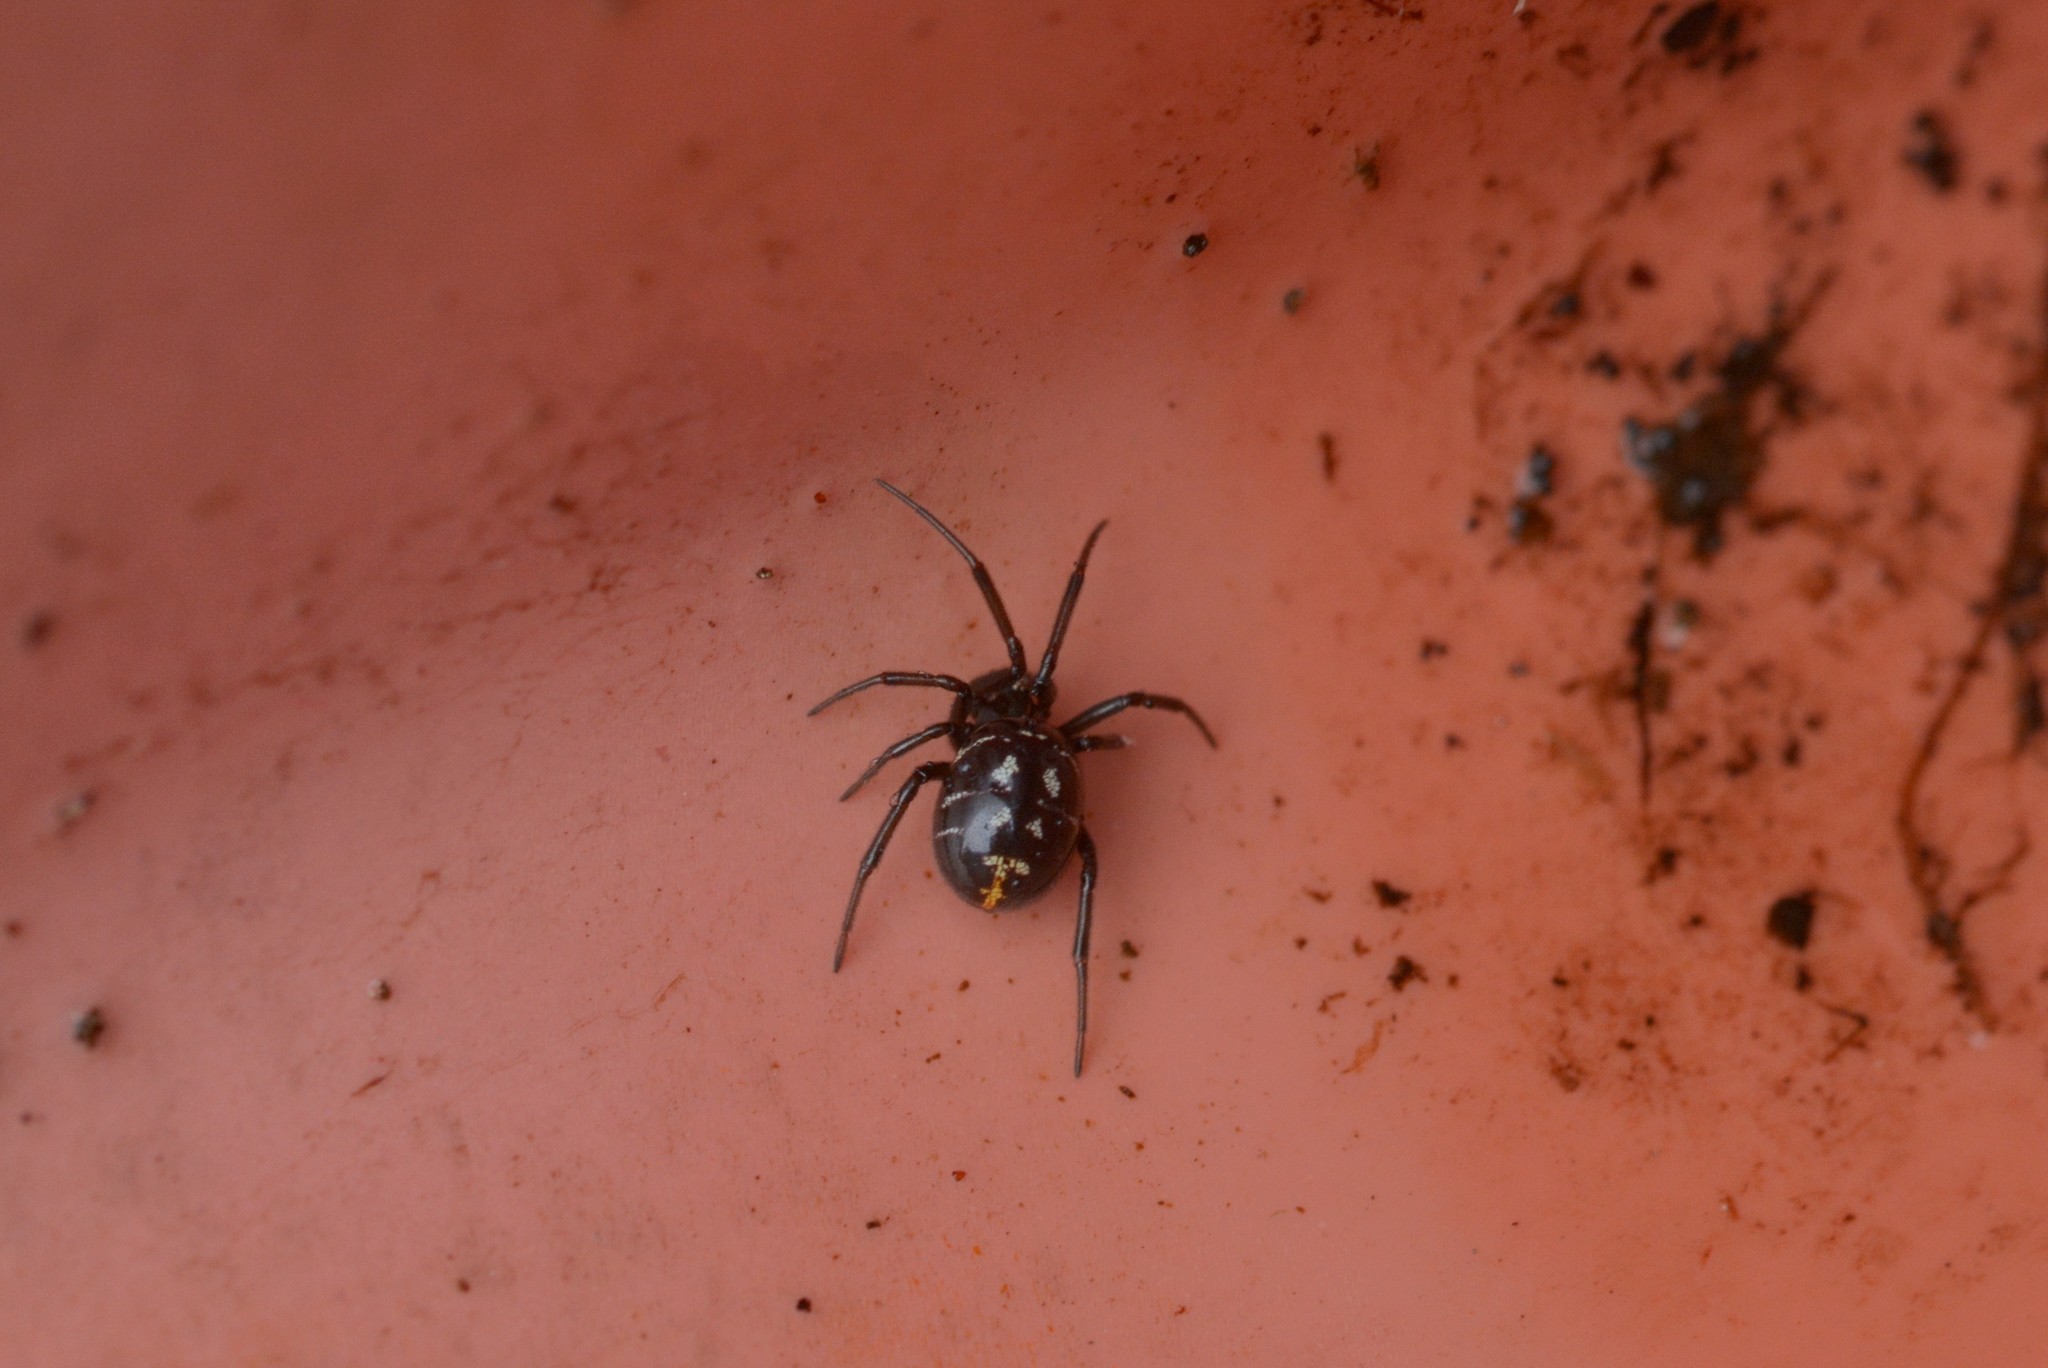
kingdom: Animalia
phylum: Arthropoda
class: Arachnida
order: Araneae
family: Theridiidae
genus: Steatoda
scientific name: Steatoda capensis
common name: Cobweb weaver
